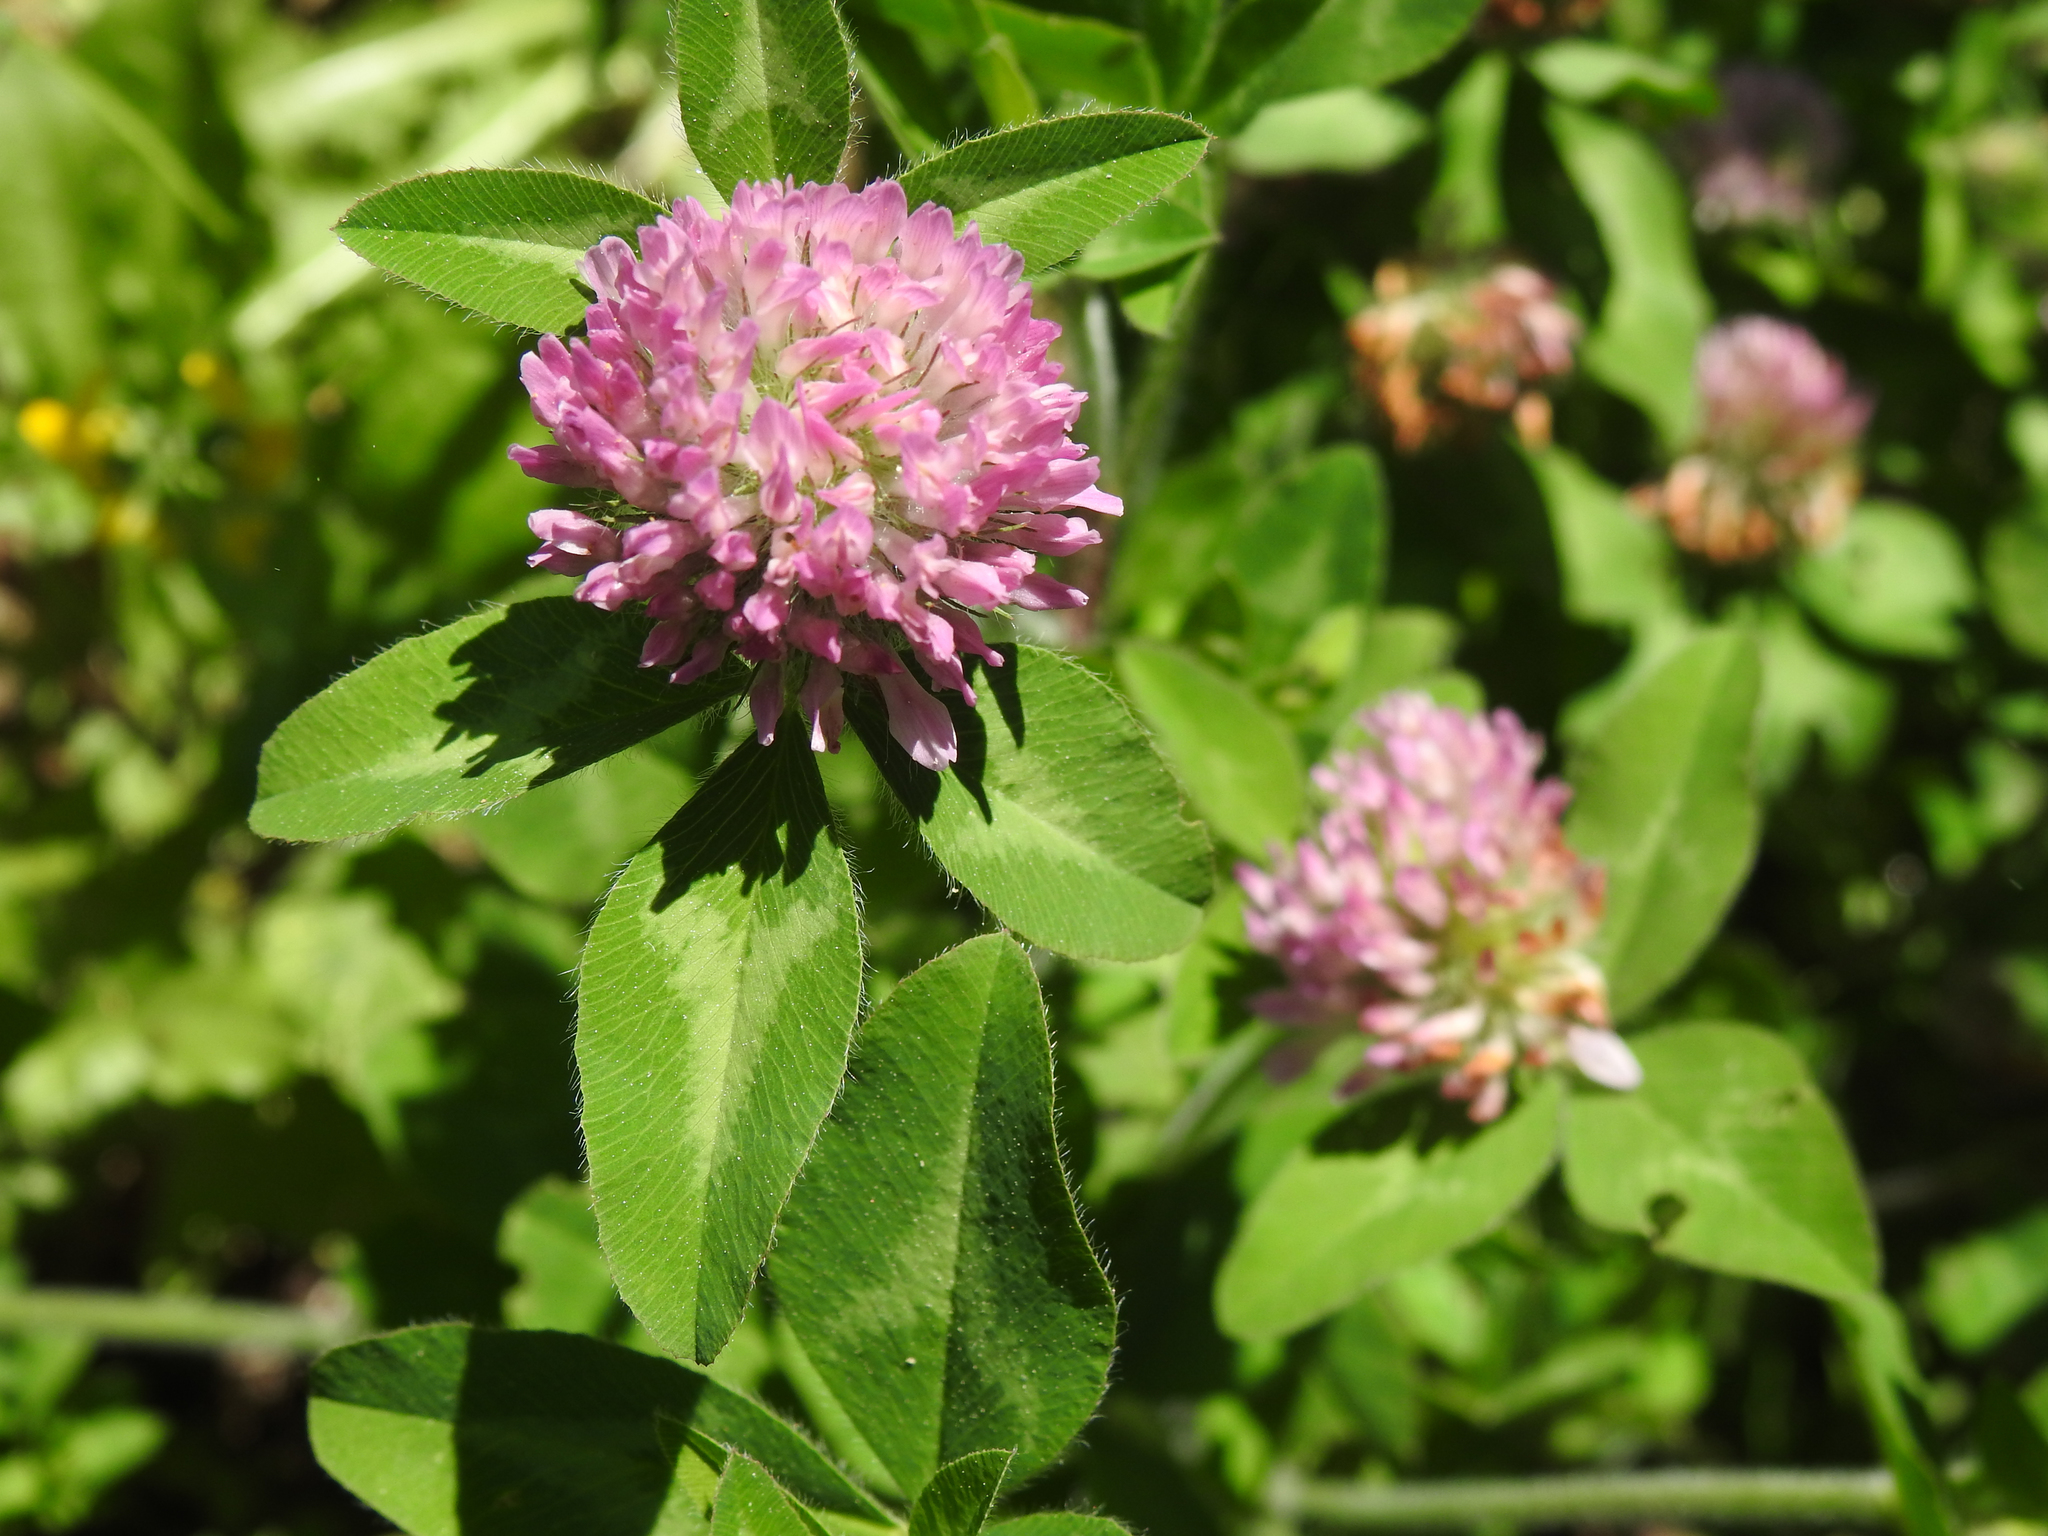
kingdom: Plantae
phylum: Tracheophyta
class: Magnoliopsida
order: Fabales
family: Fabaceae
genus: Trifolium
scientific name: Trifolium pratense
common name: Red clover
